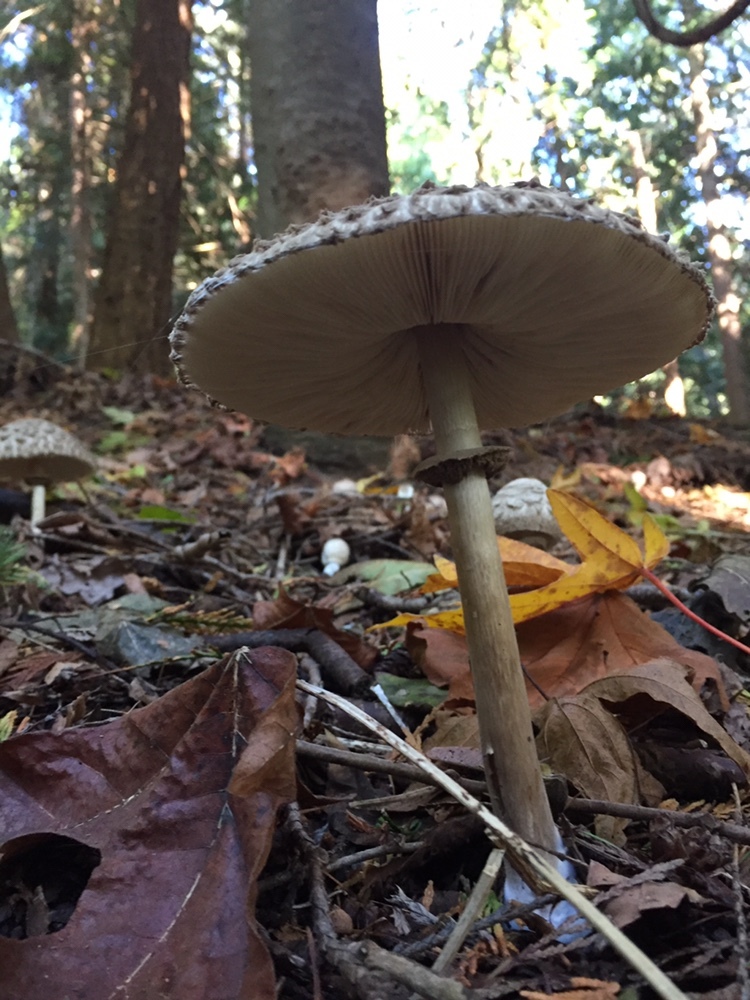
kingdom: Fungi
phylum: Basidiomycota
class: Agaricomycetes
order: Agaricales
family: Agaricaceae
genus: Chlorophyllum
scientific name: Chlorophyllum olivieri
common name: Conifer parasol
